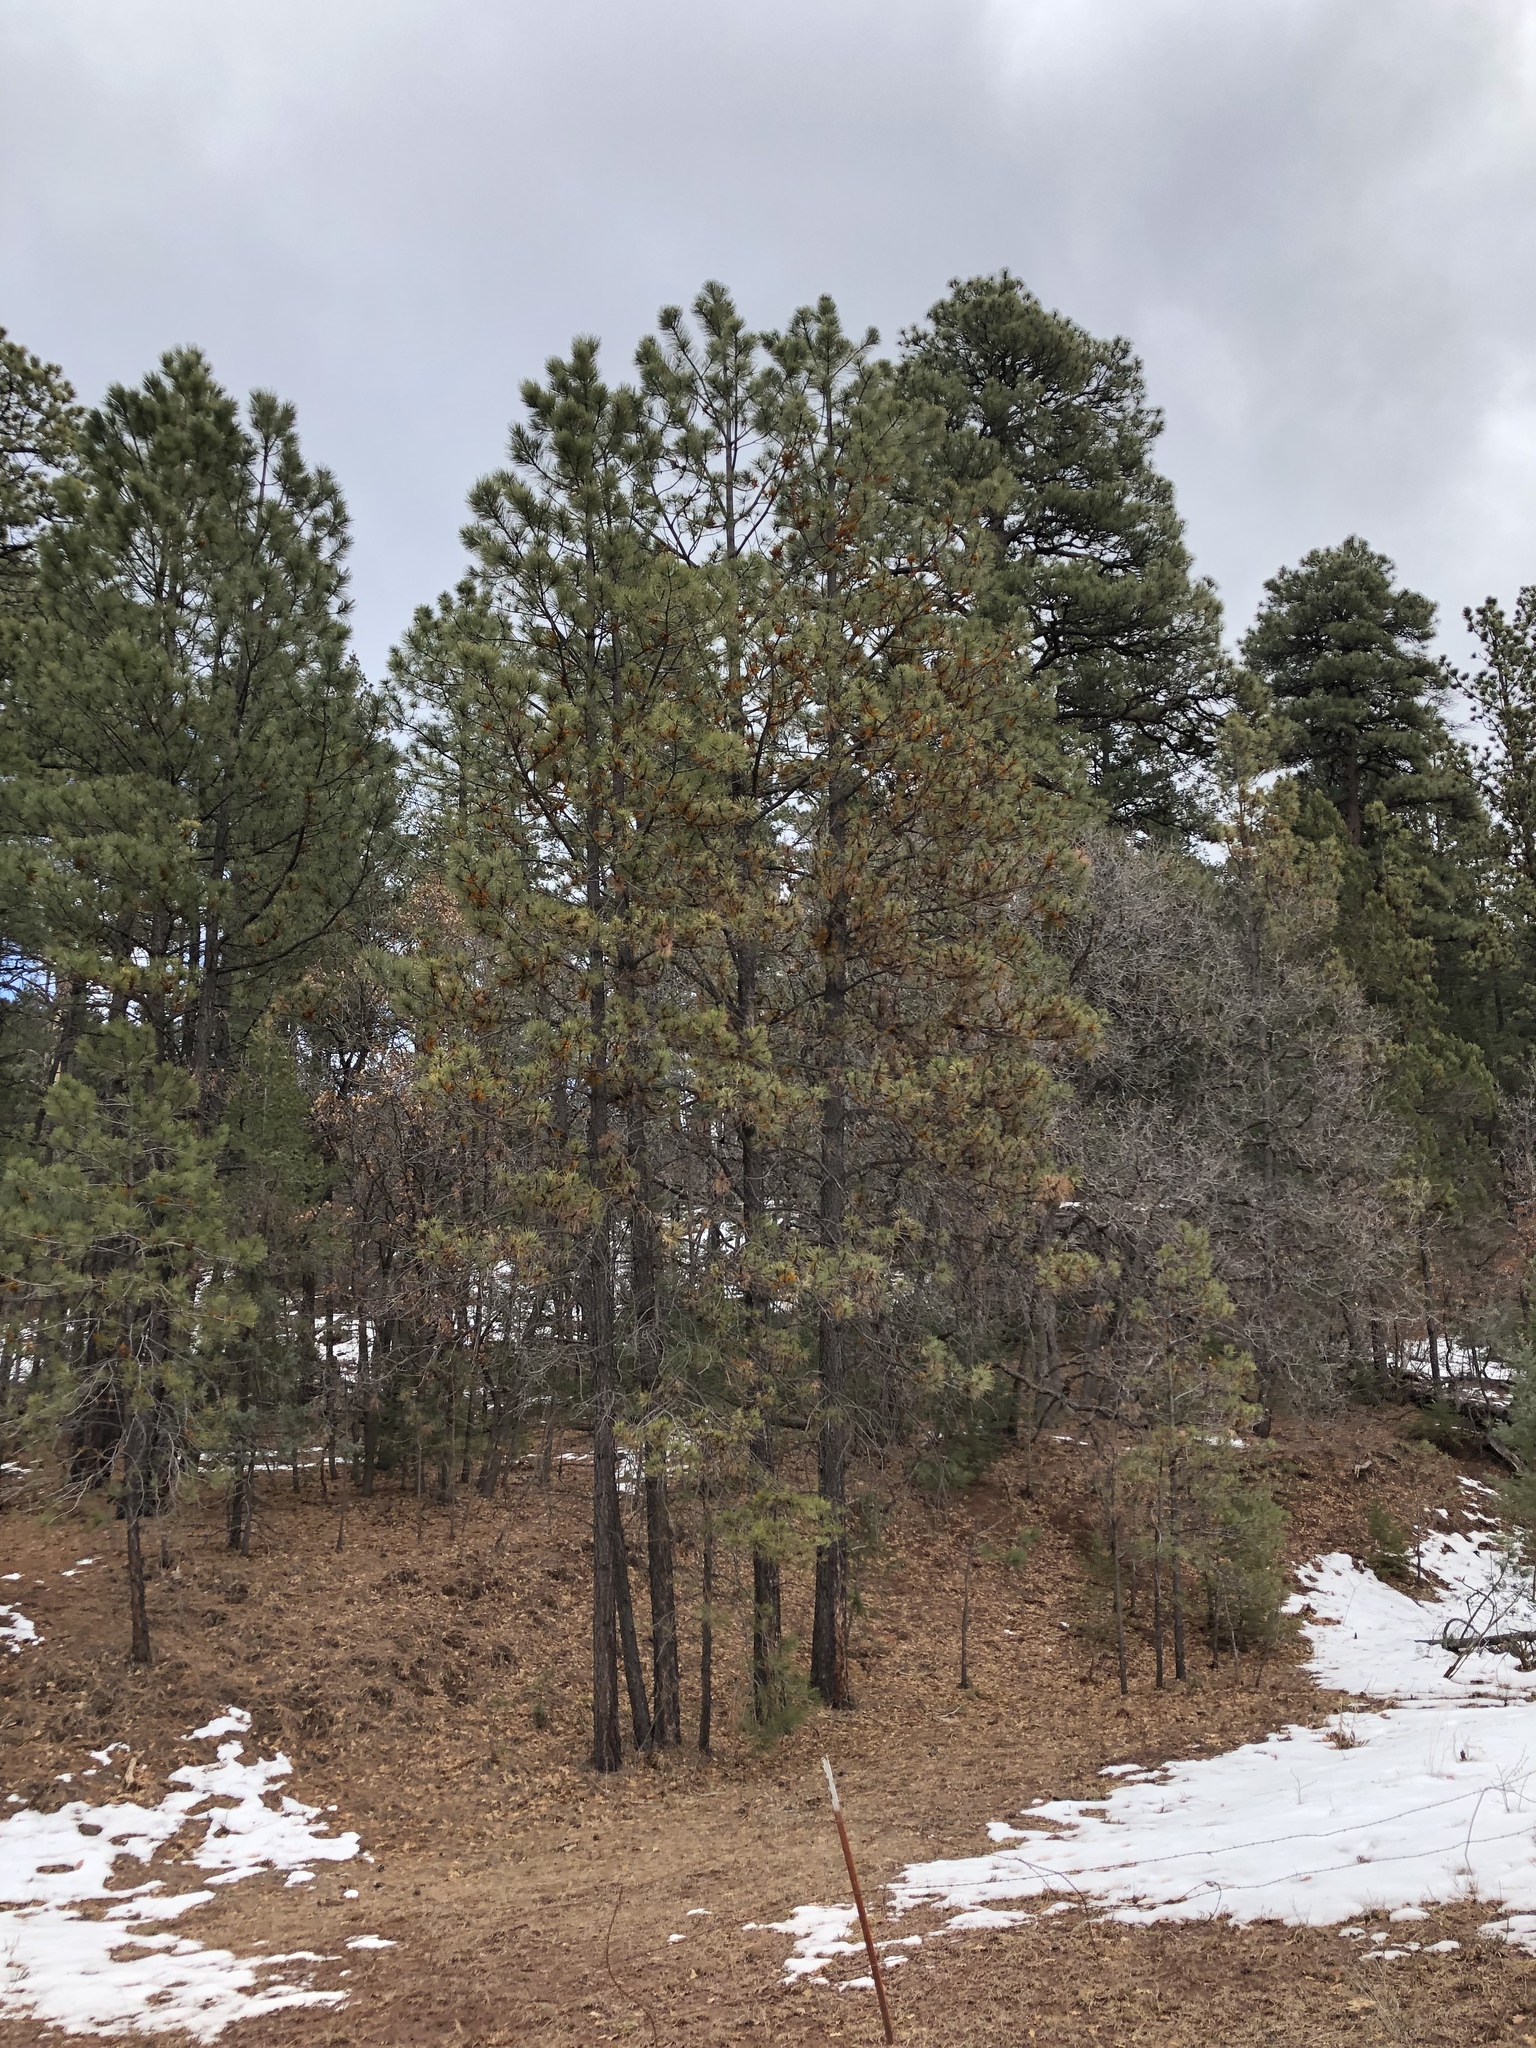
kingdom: Plantae
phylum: Tracheophyta
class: Pinopsida
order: Pinales
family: Pinaceae
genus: Pinus
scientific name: Pinus ponderosa
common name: Western yellow-pine
